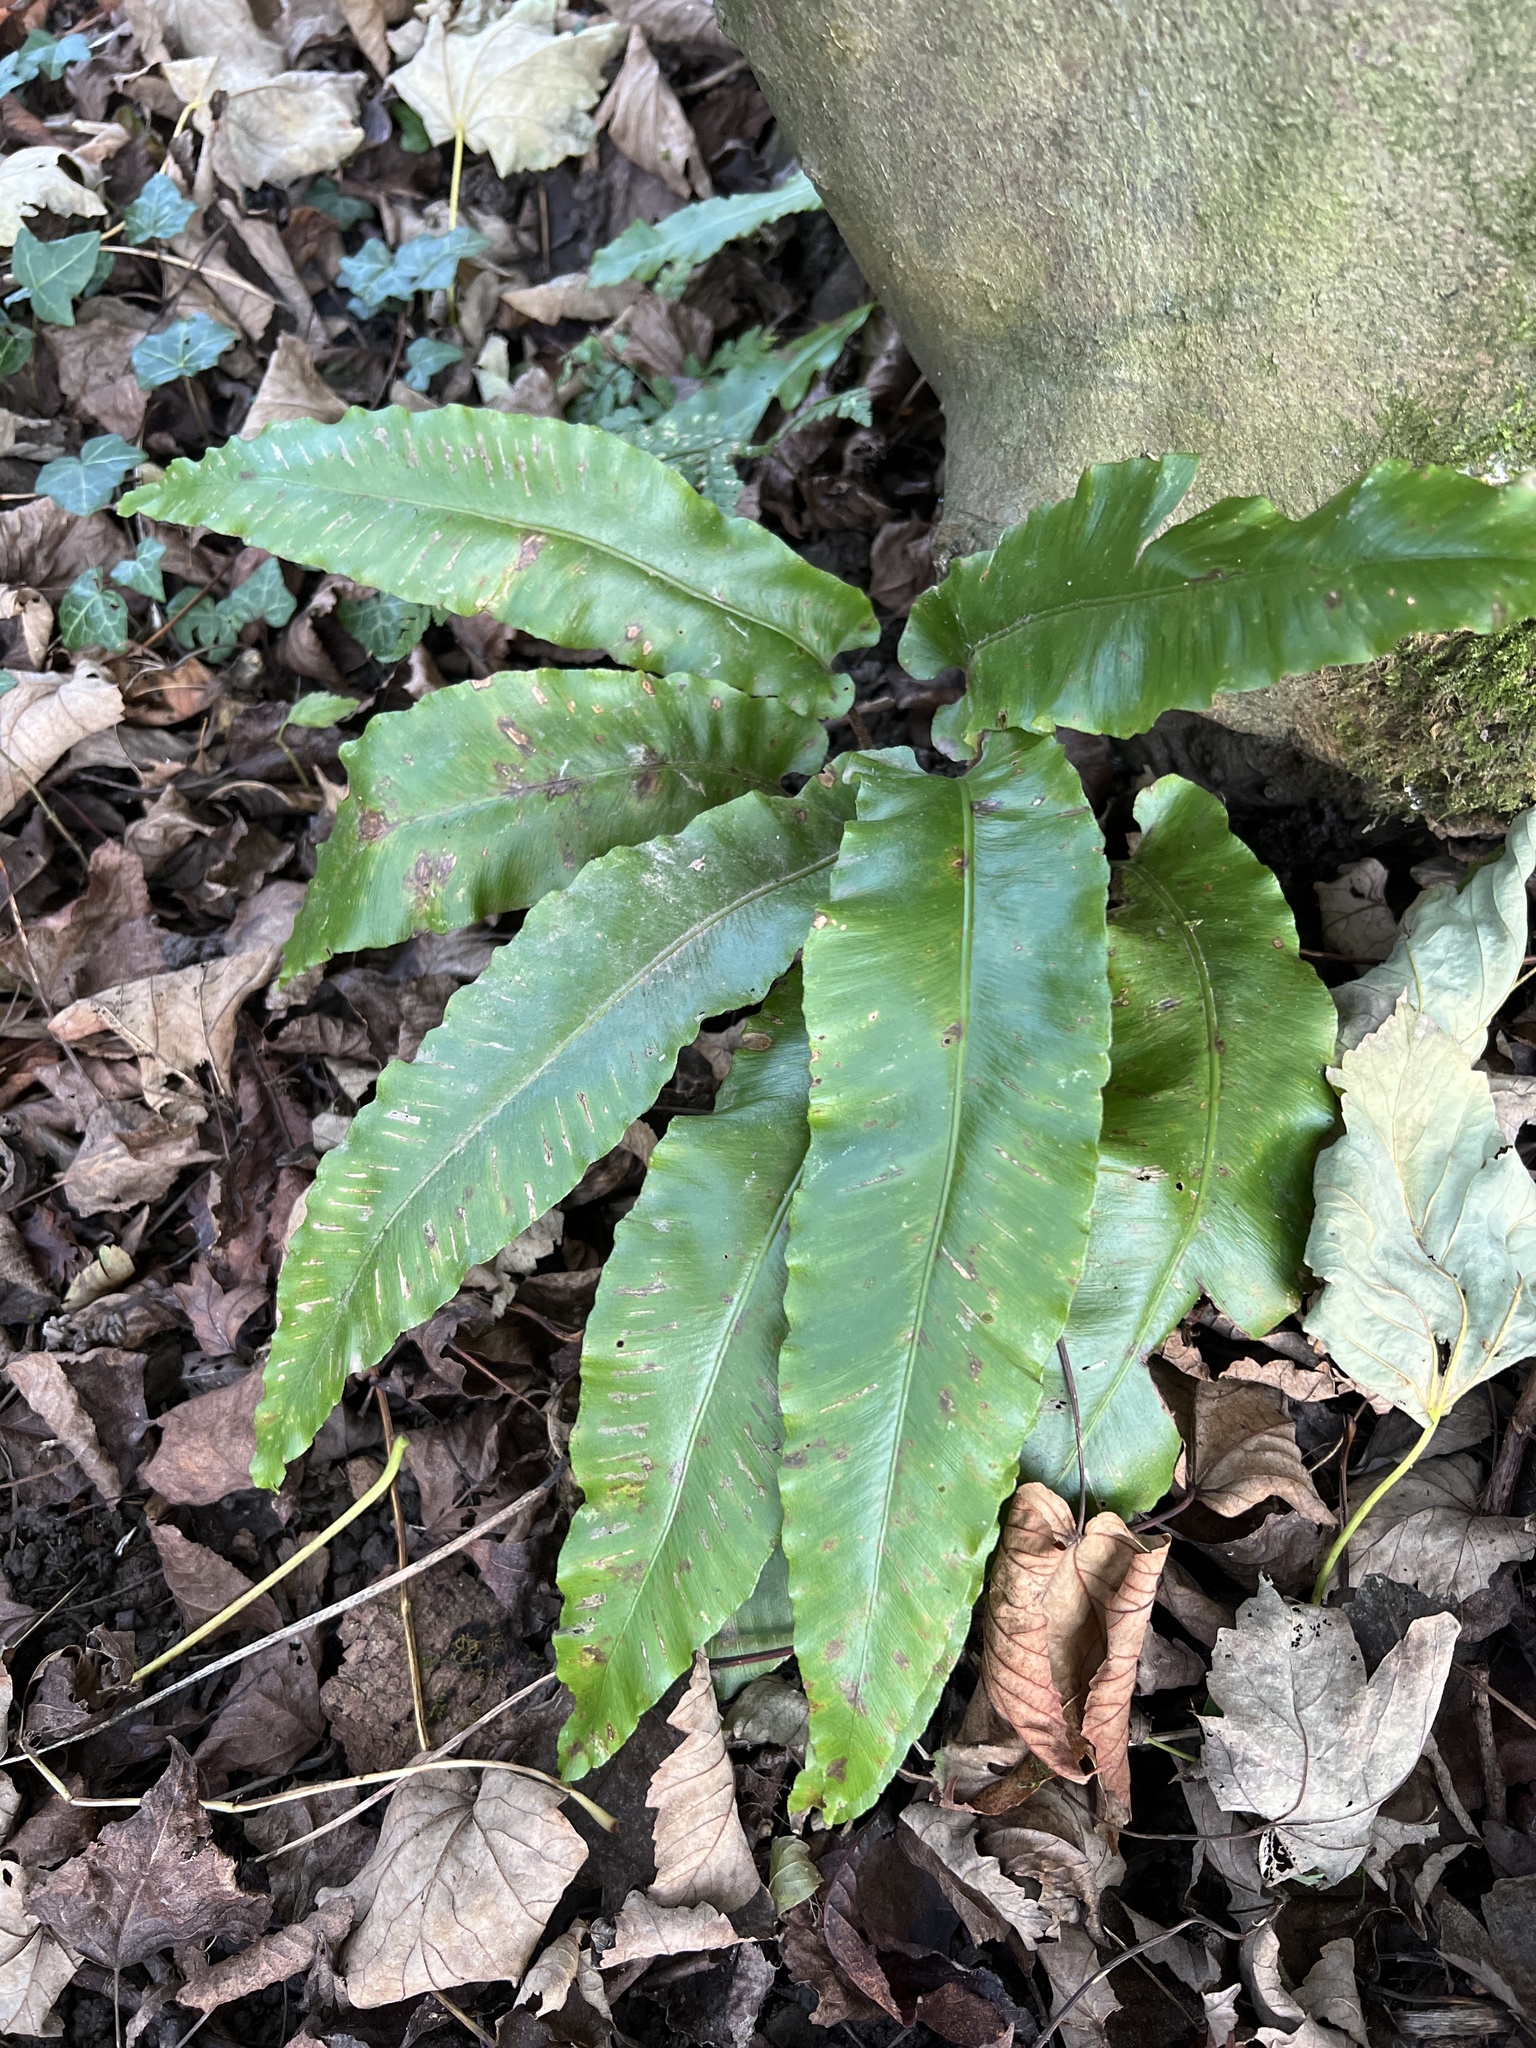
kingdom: Plantae
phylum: Tracheophyta
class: Polypodiopsida
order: Polypodiales
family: Aspleniaceae
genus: Asplenium
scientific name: Asplenium scolopendrium
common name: Hart's-tongue fern
